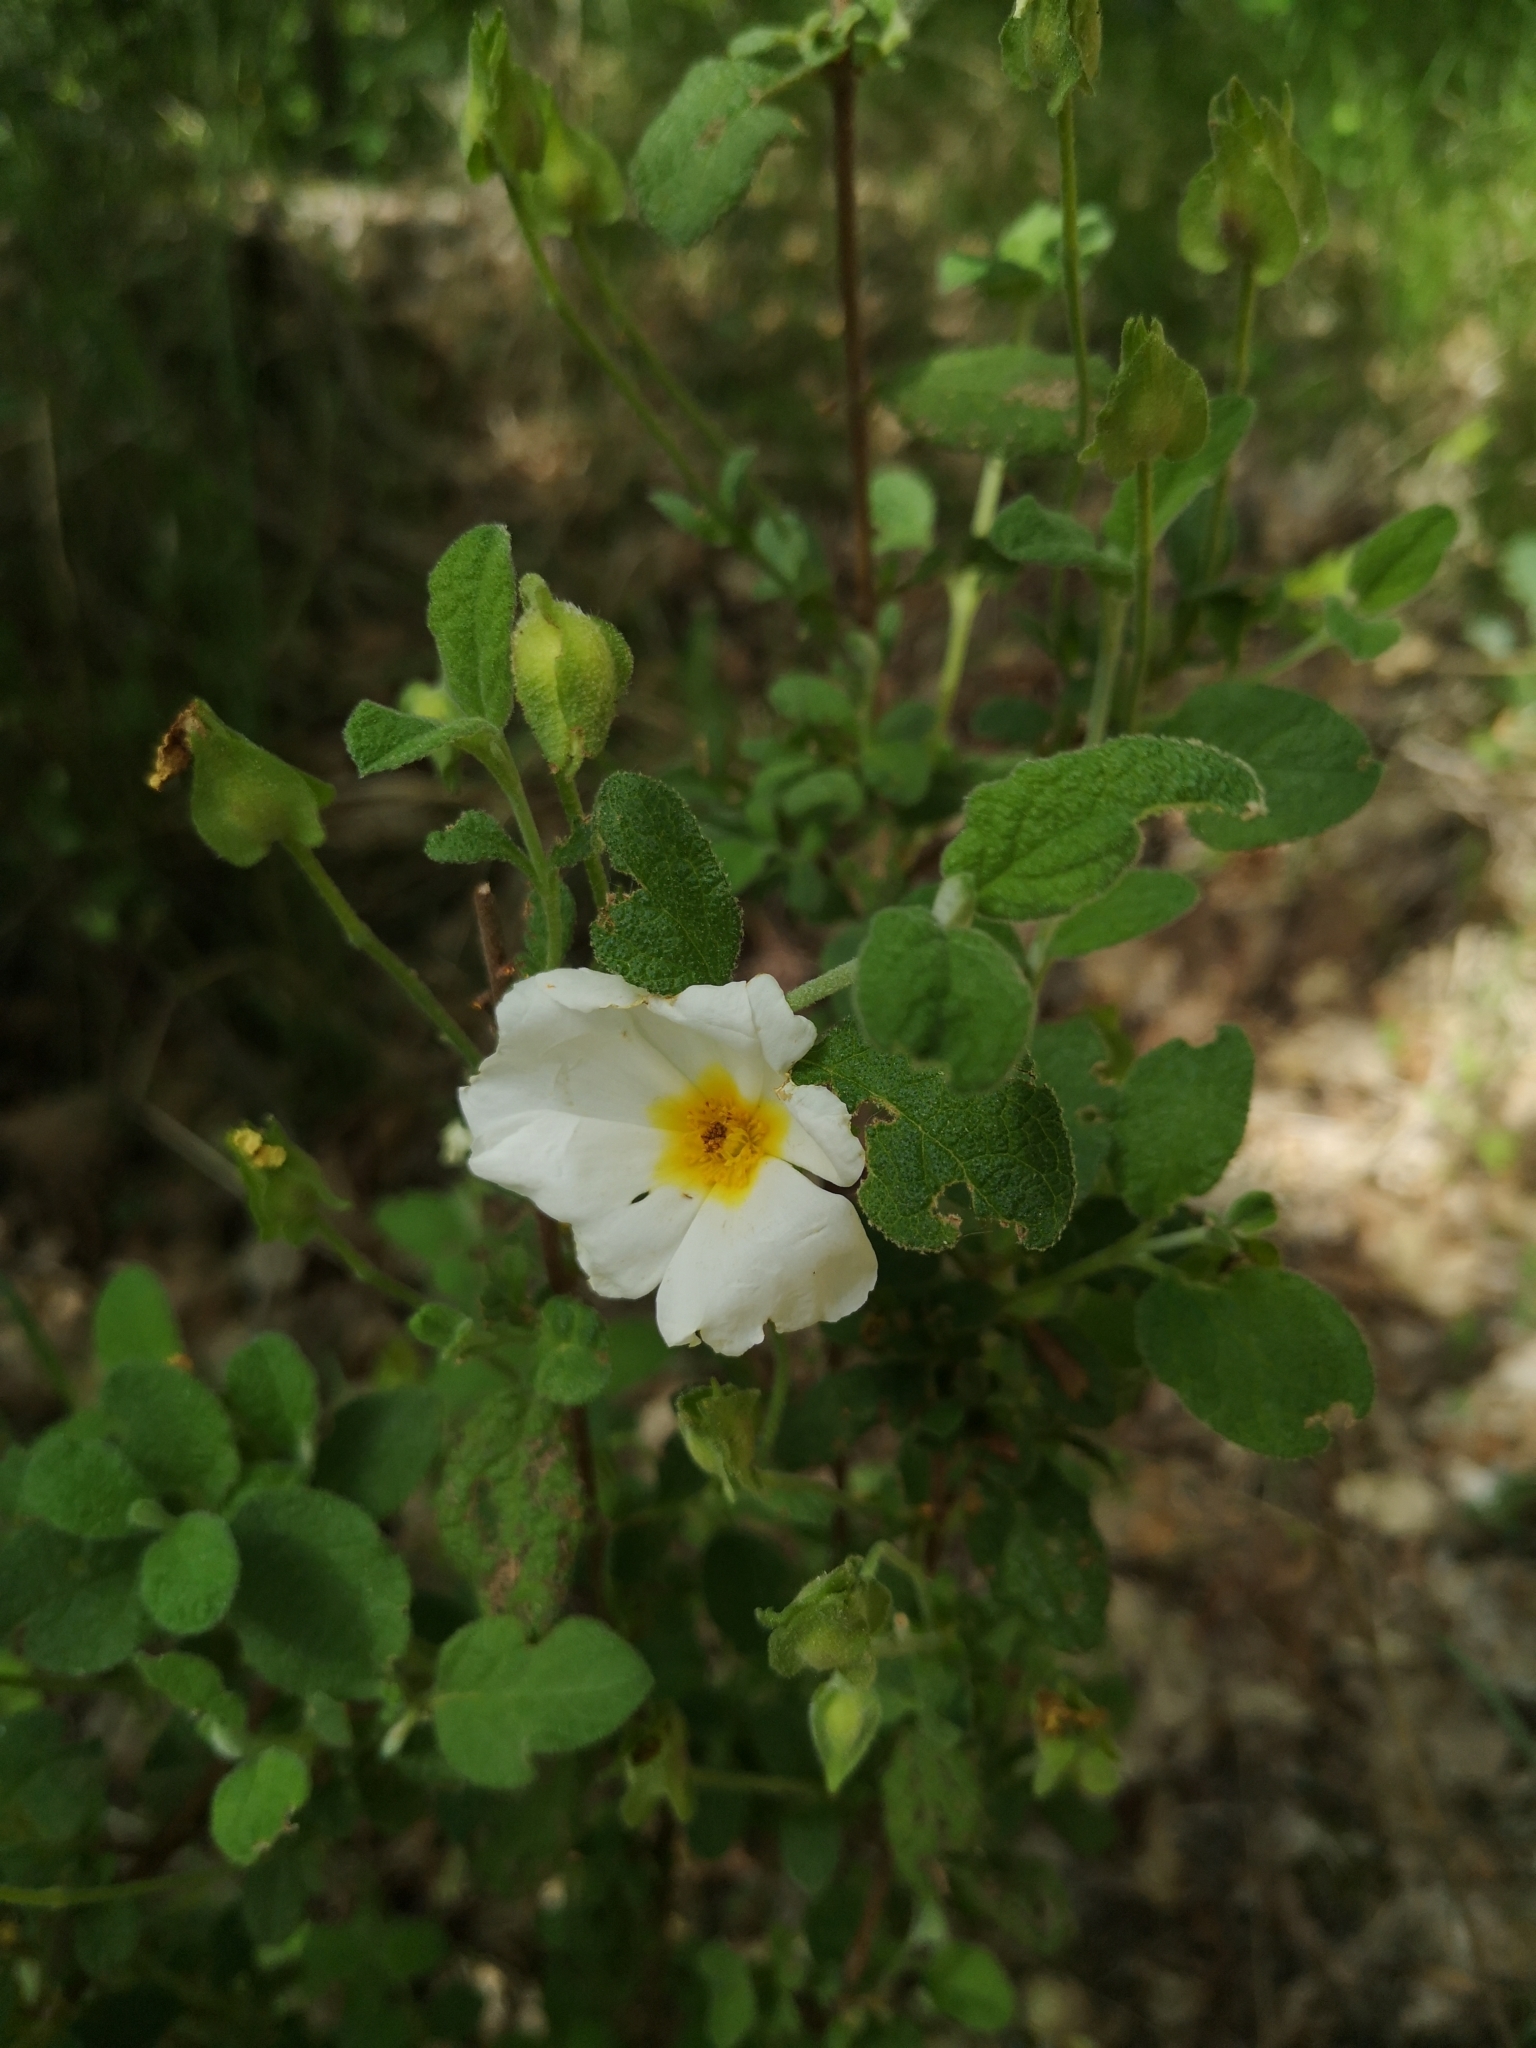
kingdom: Plantae
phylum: Tracheophyta
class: Magnoliopsida
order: Malvales
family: Cistaceae
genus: Cistus
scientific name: Cistus salviifolius
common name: Salvia cistus
